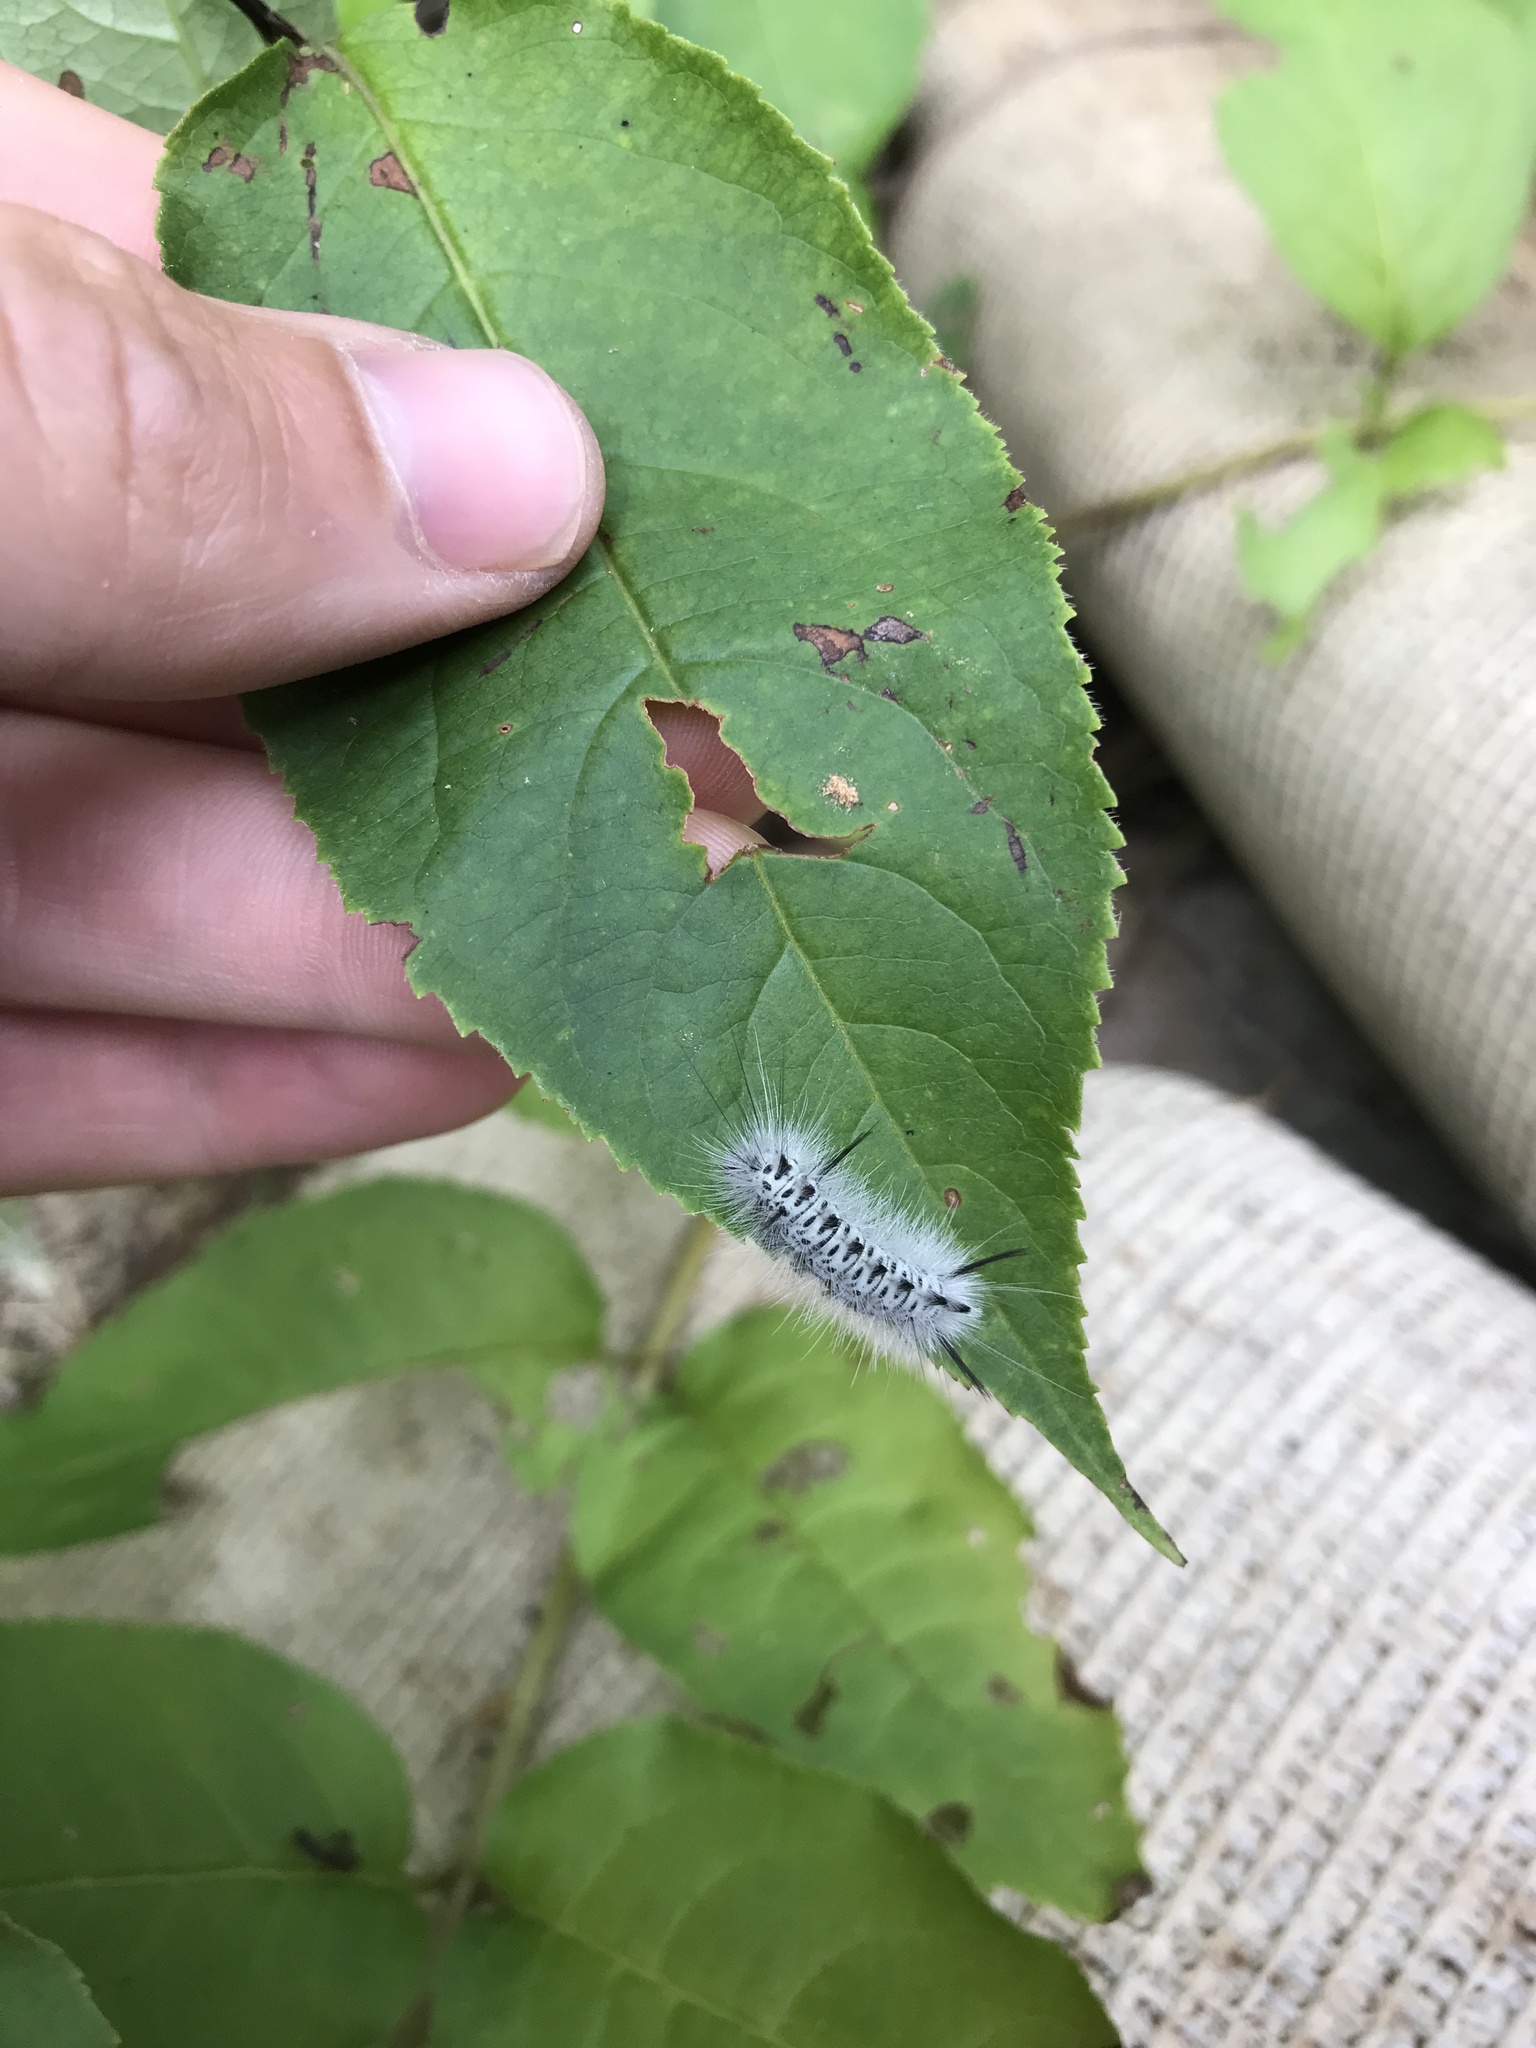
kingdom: Animalia
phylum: Arthropoda
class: Insecta
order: Lepidoptera
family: Erebidae
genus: Lophocampa
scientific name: Lophocampa caryae
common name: Hickory tussock moth
